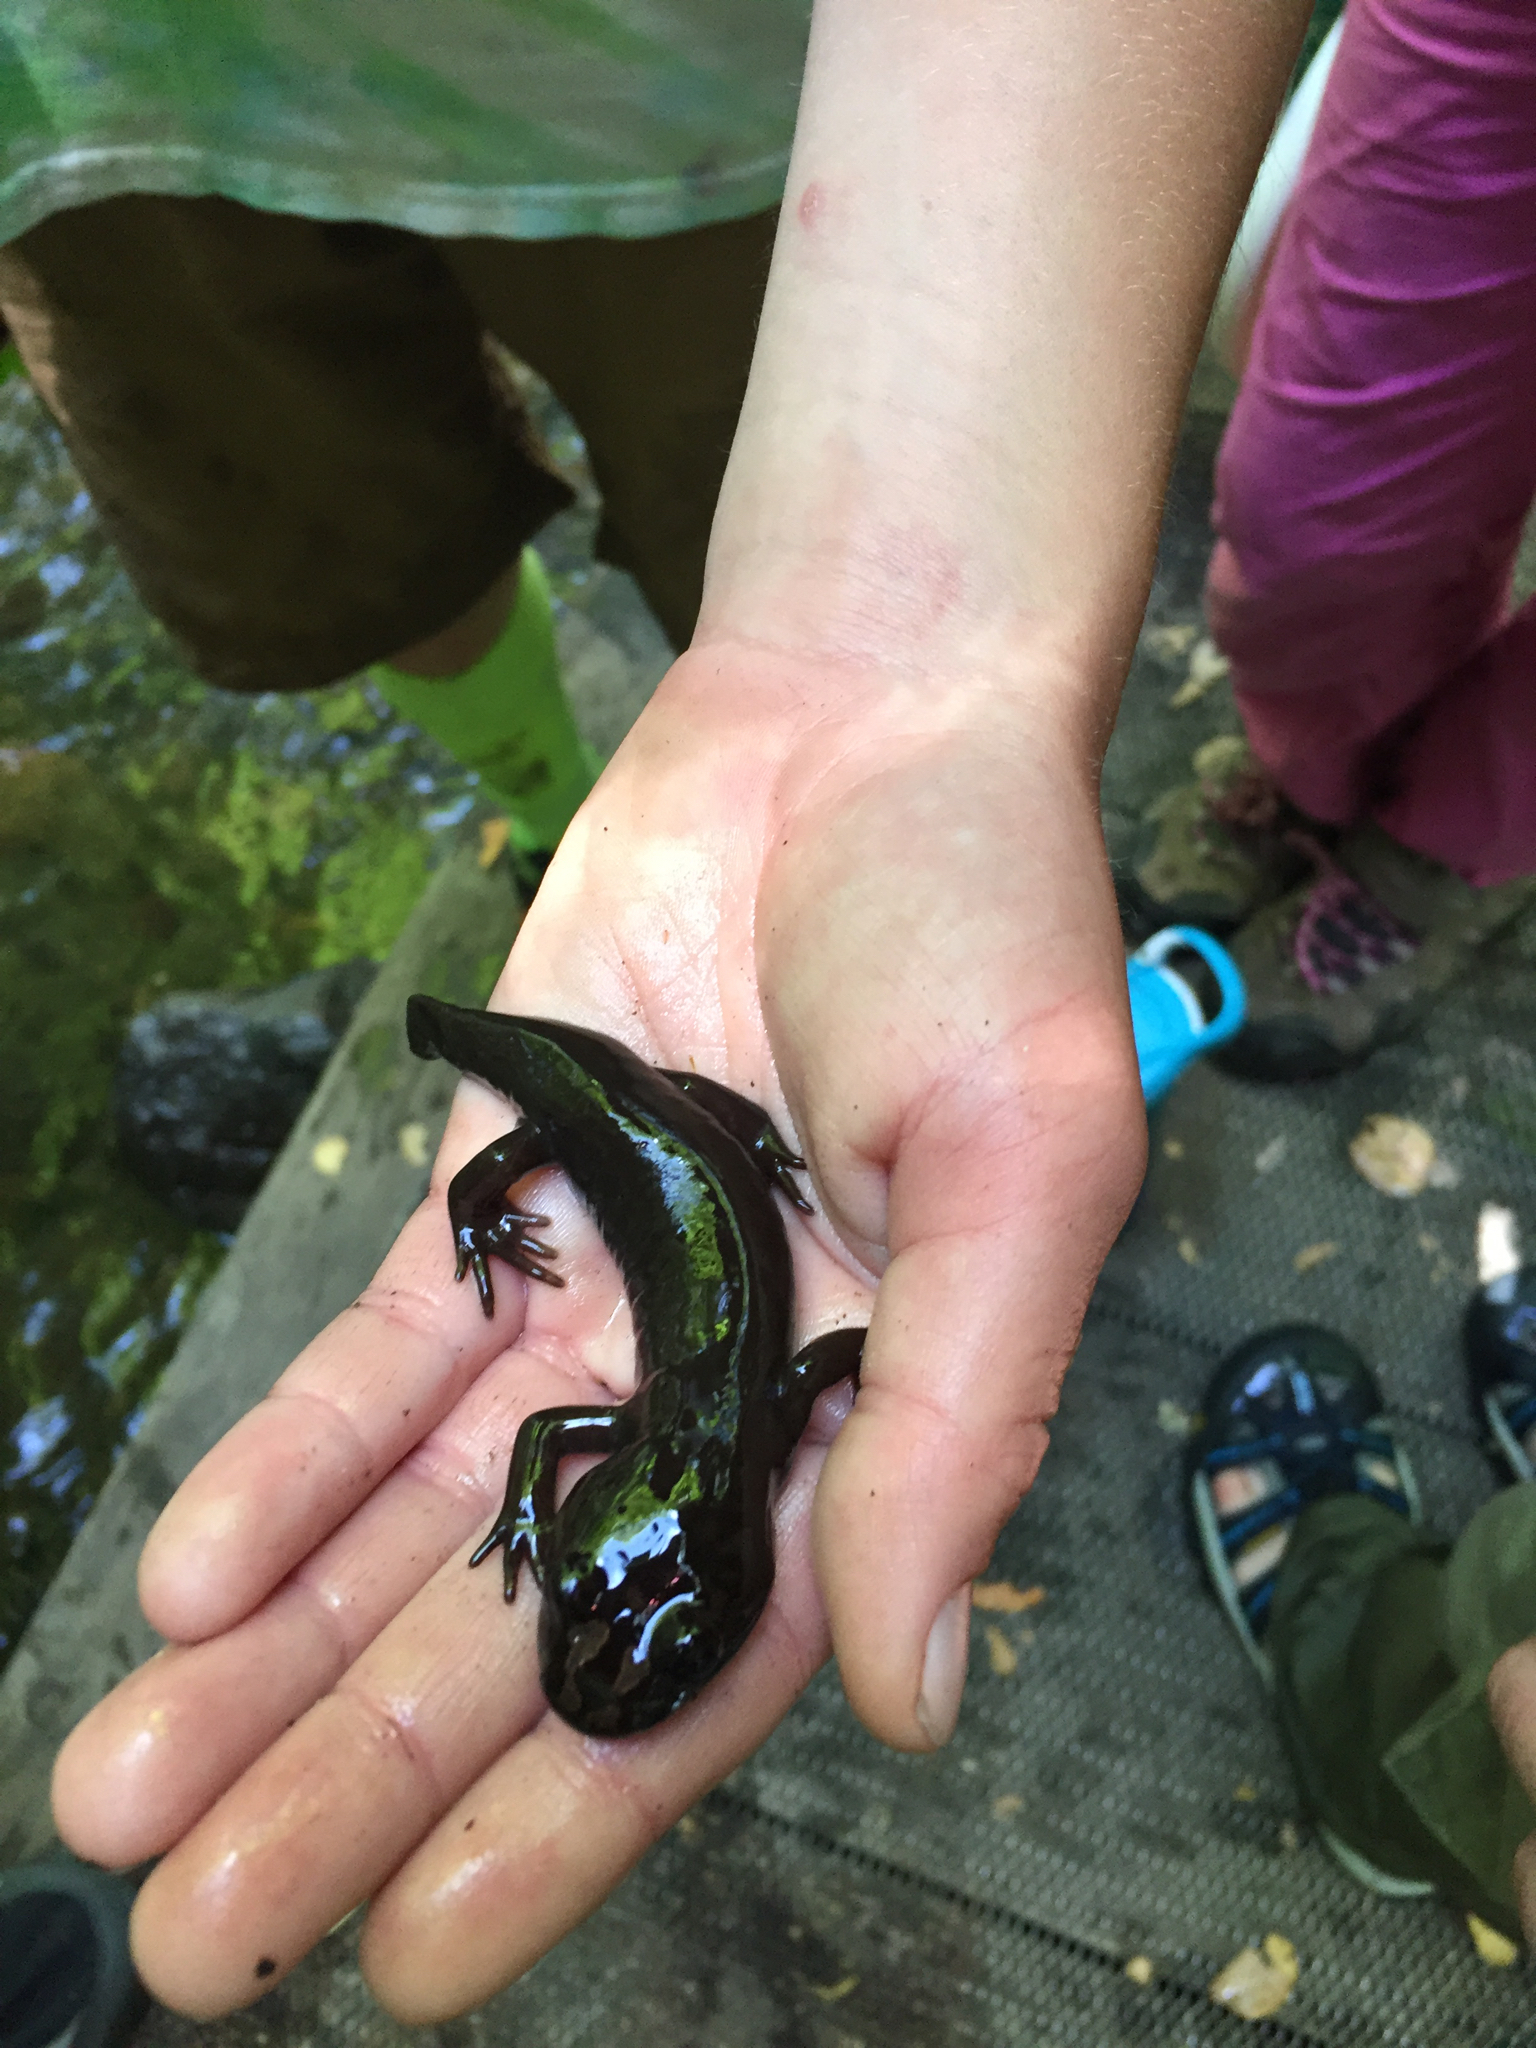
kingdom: Animalia
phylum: Chordata
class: Amphibia
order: Caudata
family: Ambystomatidae
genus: Dicamptodon
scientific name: Dicamptodon ensatus
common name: California giant salamander
